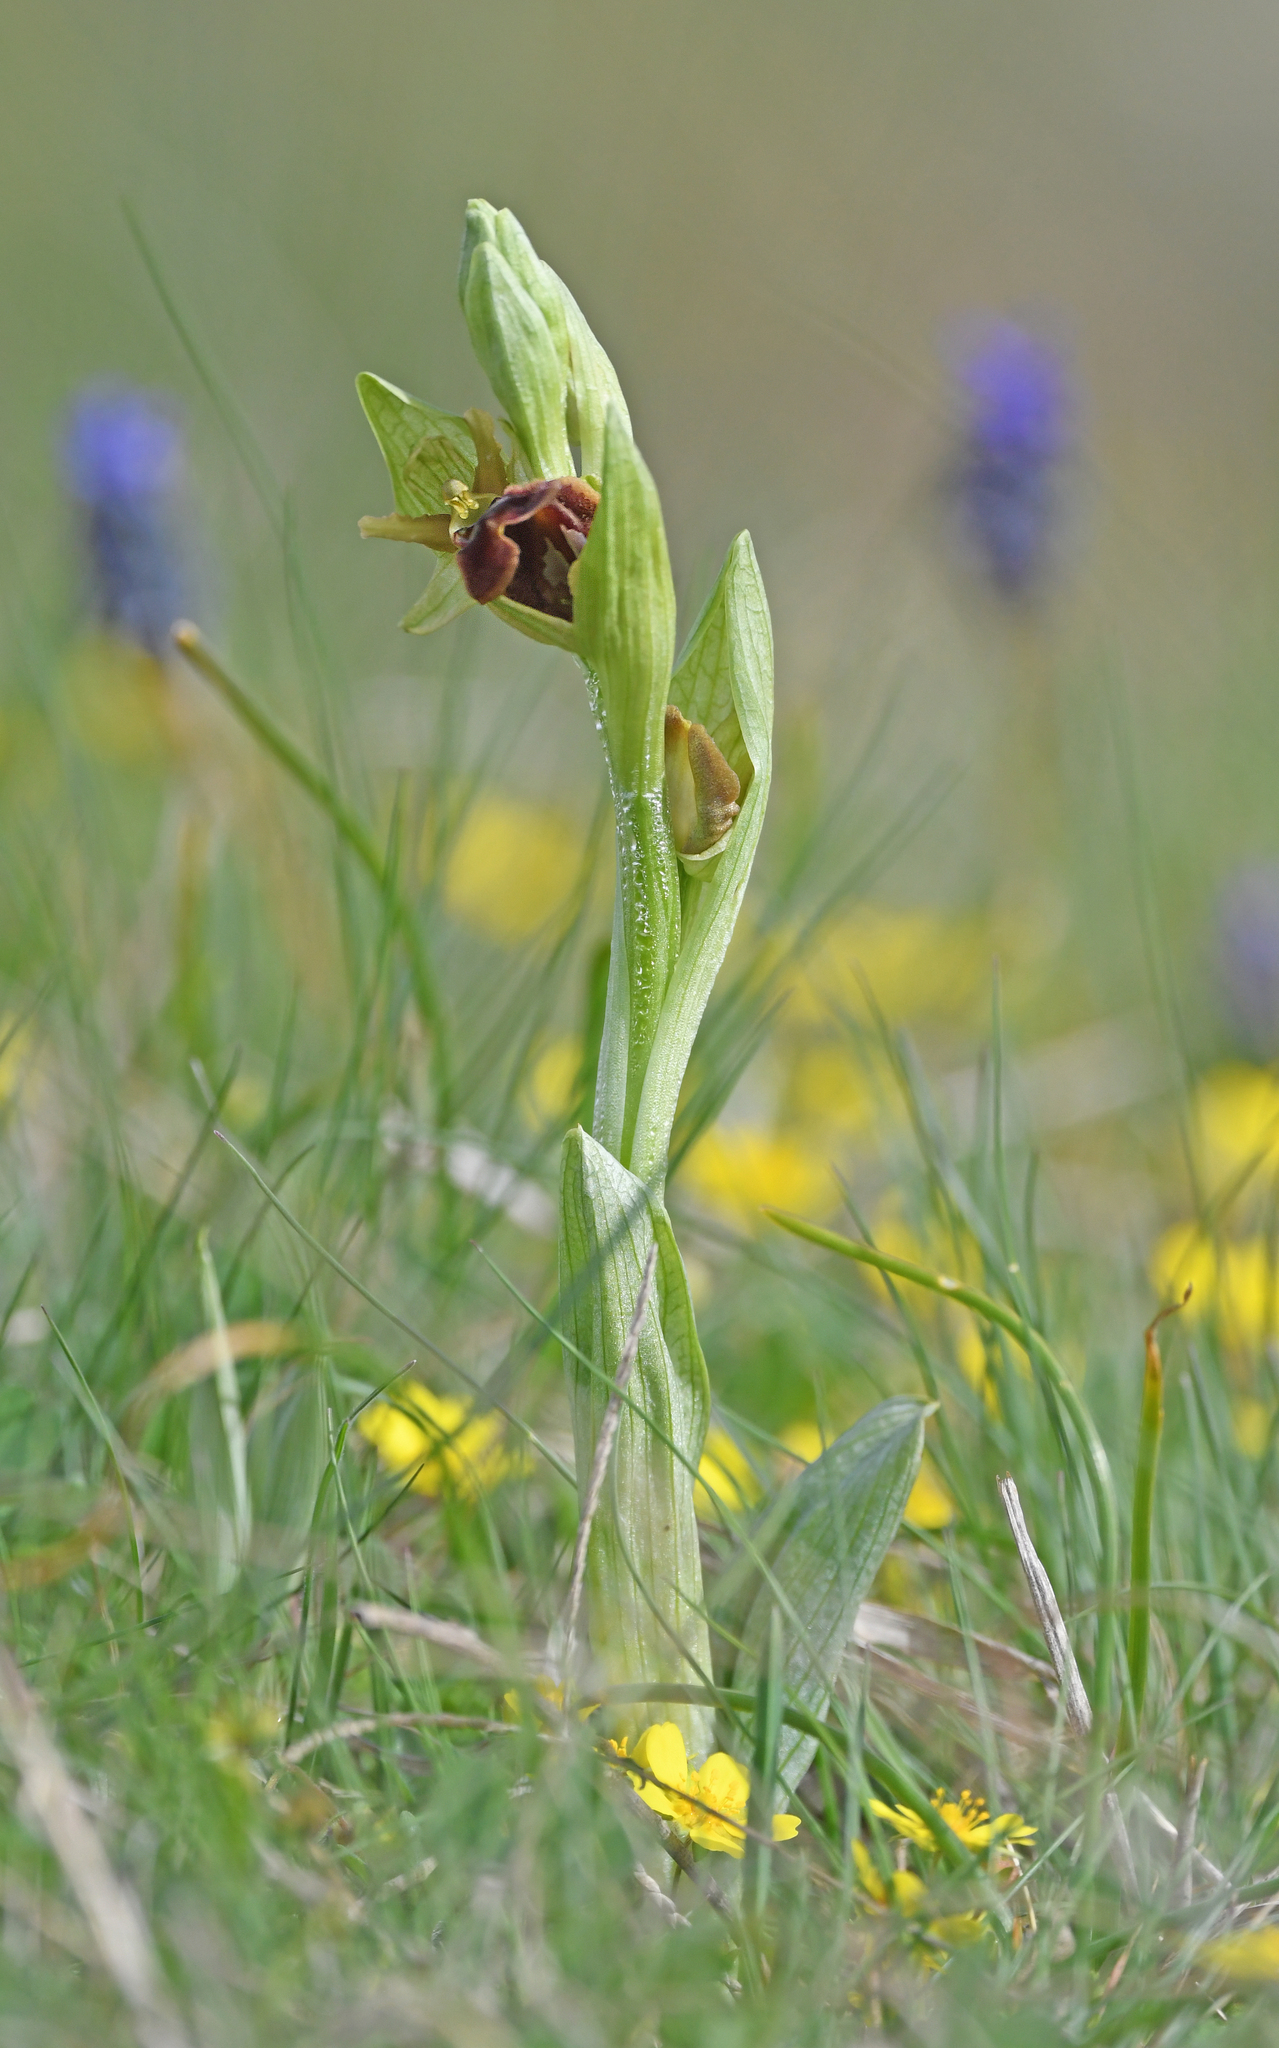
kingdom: Plantae
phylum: Tracheophyta
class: Liliopsida
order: Asparagales
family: Orchidaceae
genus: Ophrys
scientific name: Ophrys sphegodes
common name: Early spider-orchid
